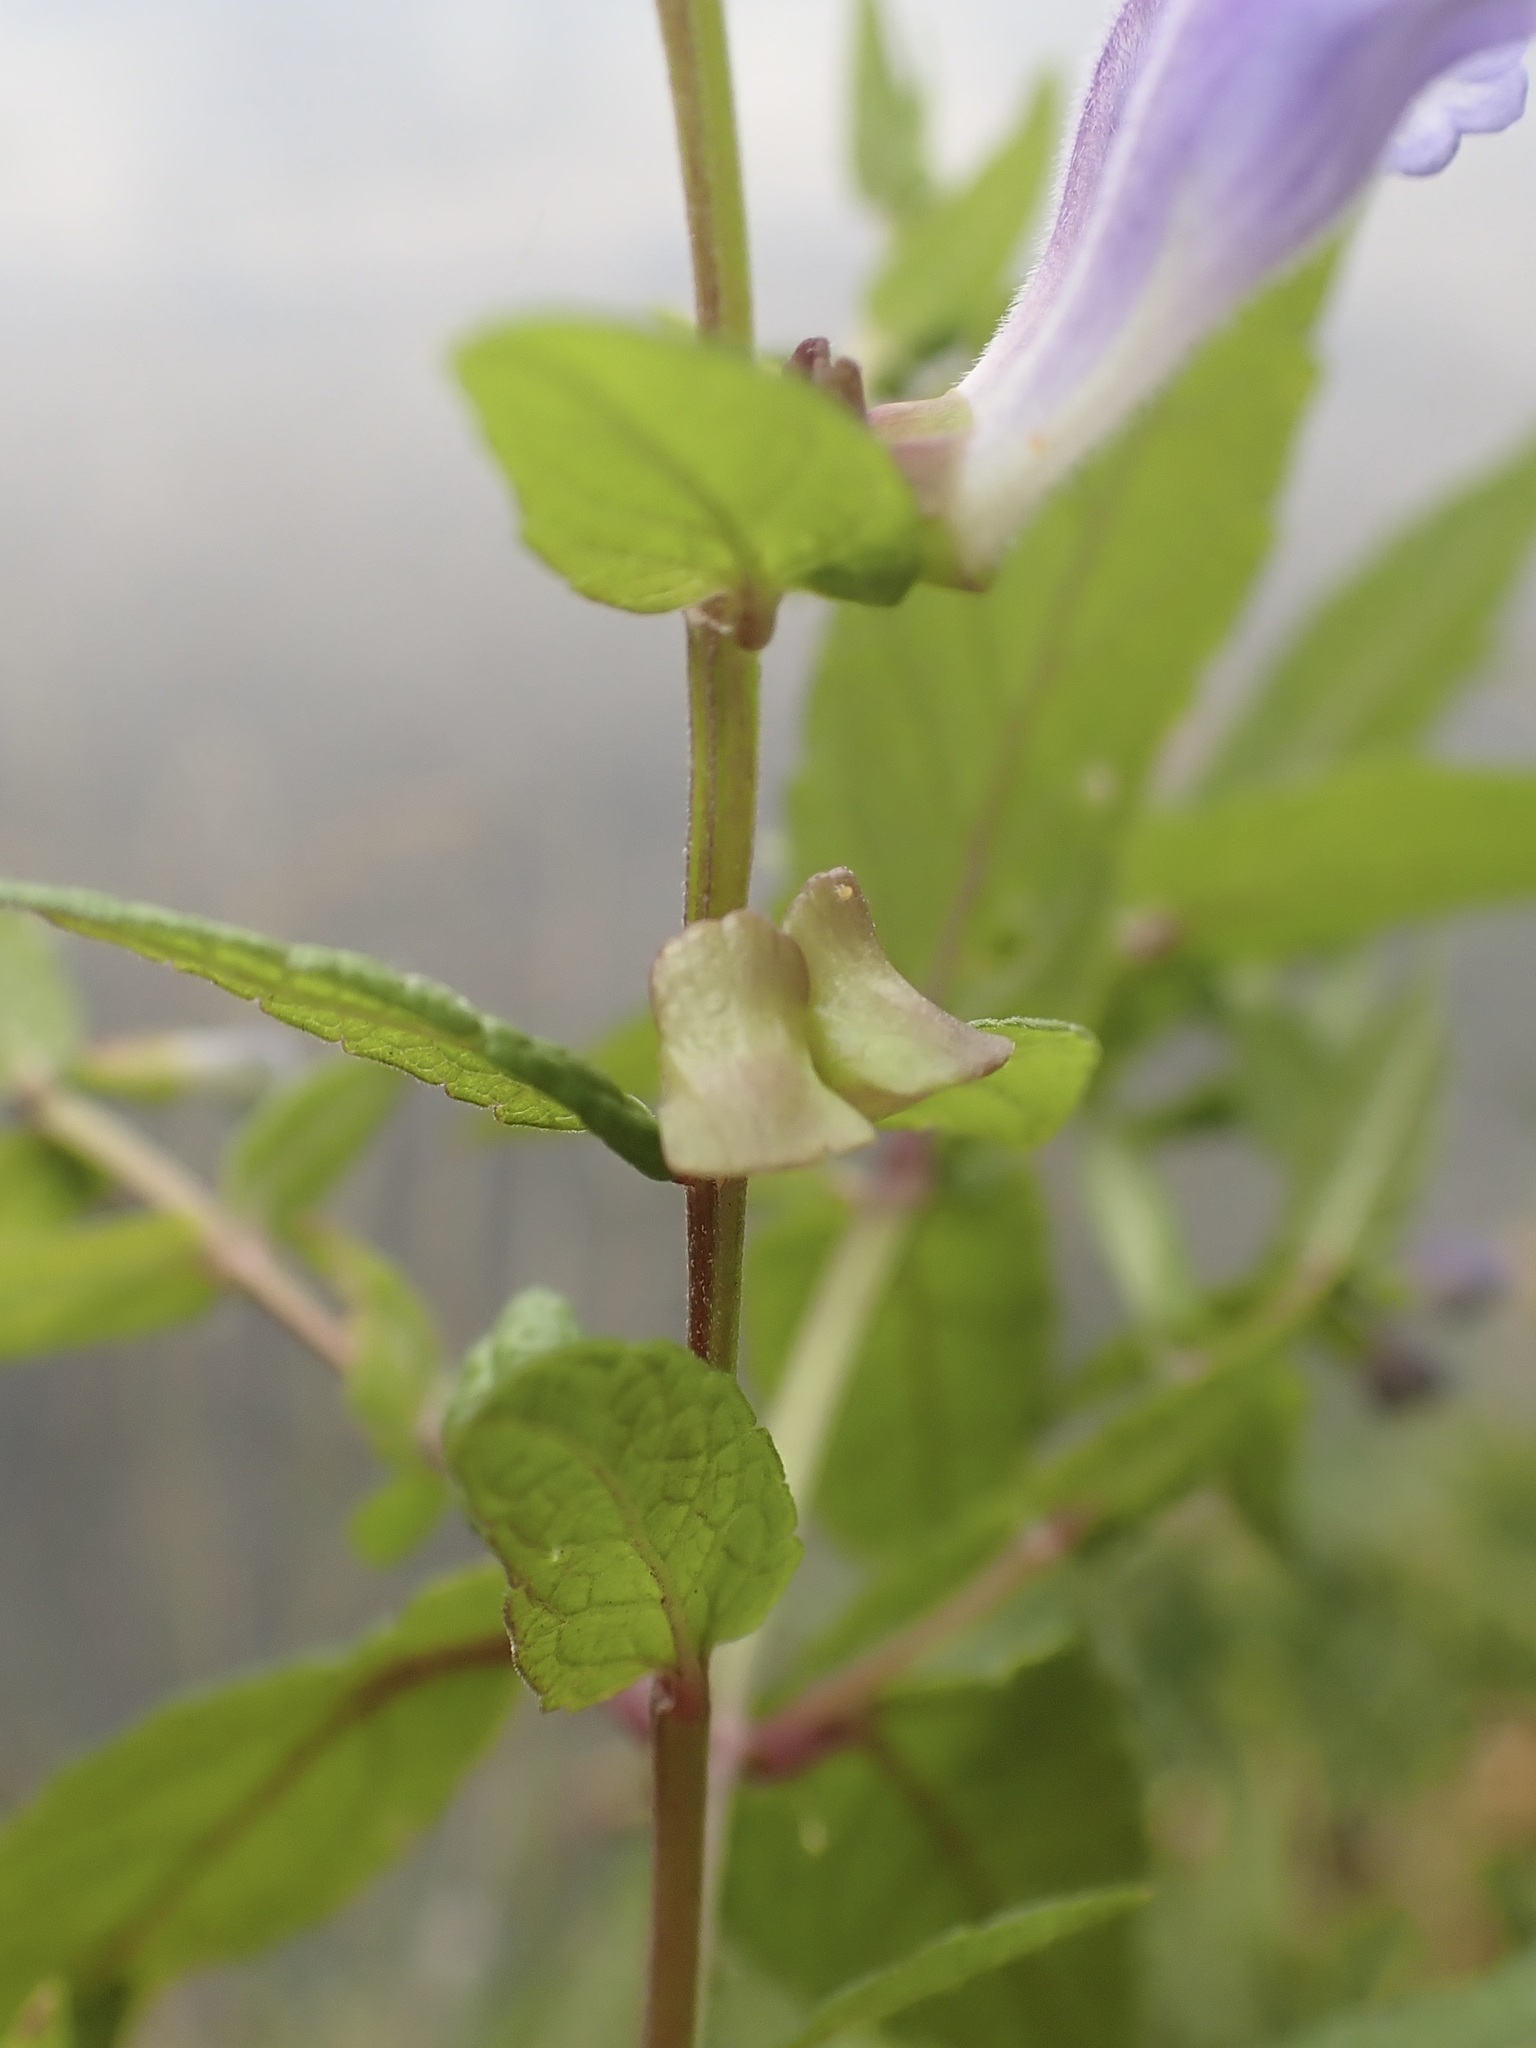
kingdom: Plantae
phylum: Tracheophyta
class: Magnoliopsida
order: Lamiales
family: Lamiaceae
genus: Scutellaria
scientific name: Scutellaria galericulata
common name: Skullcap
